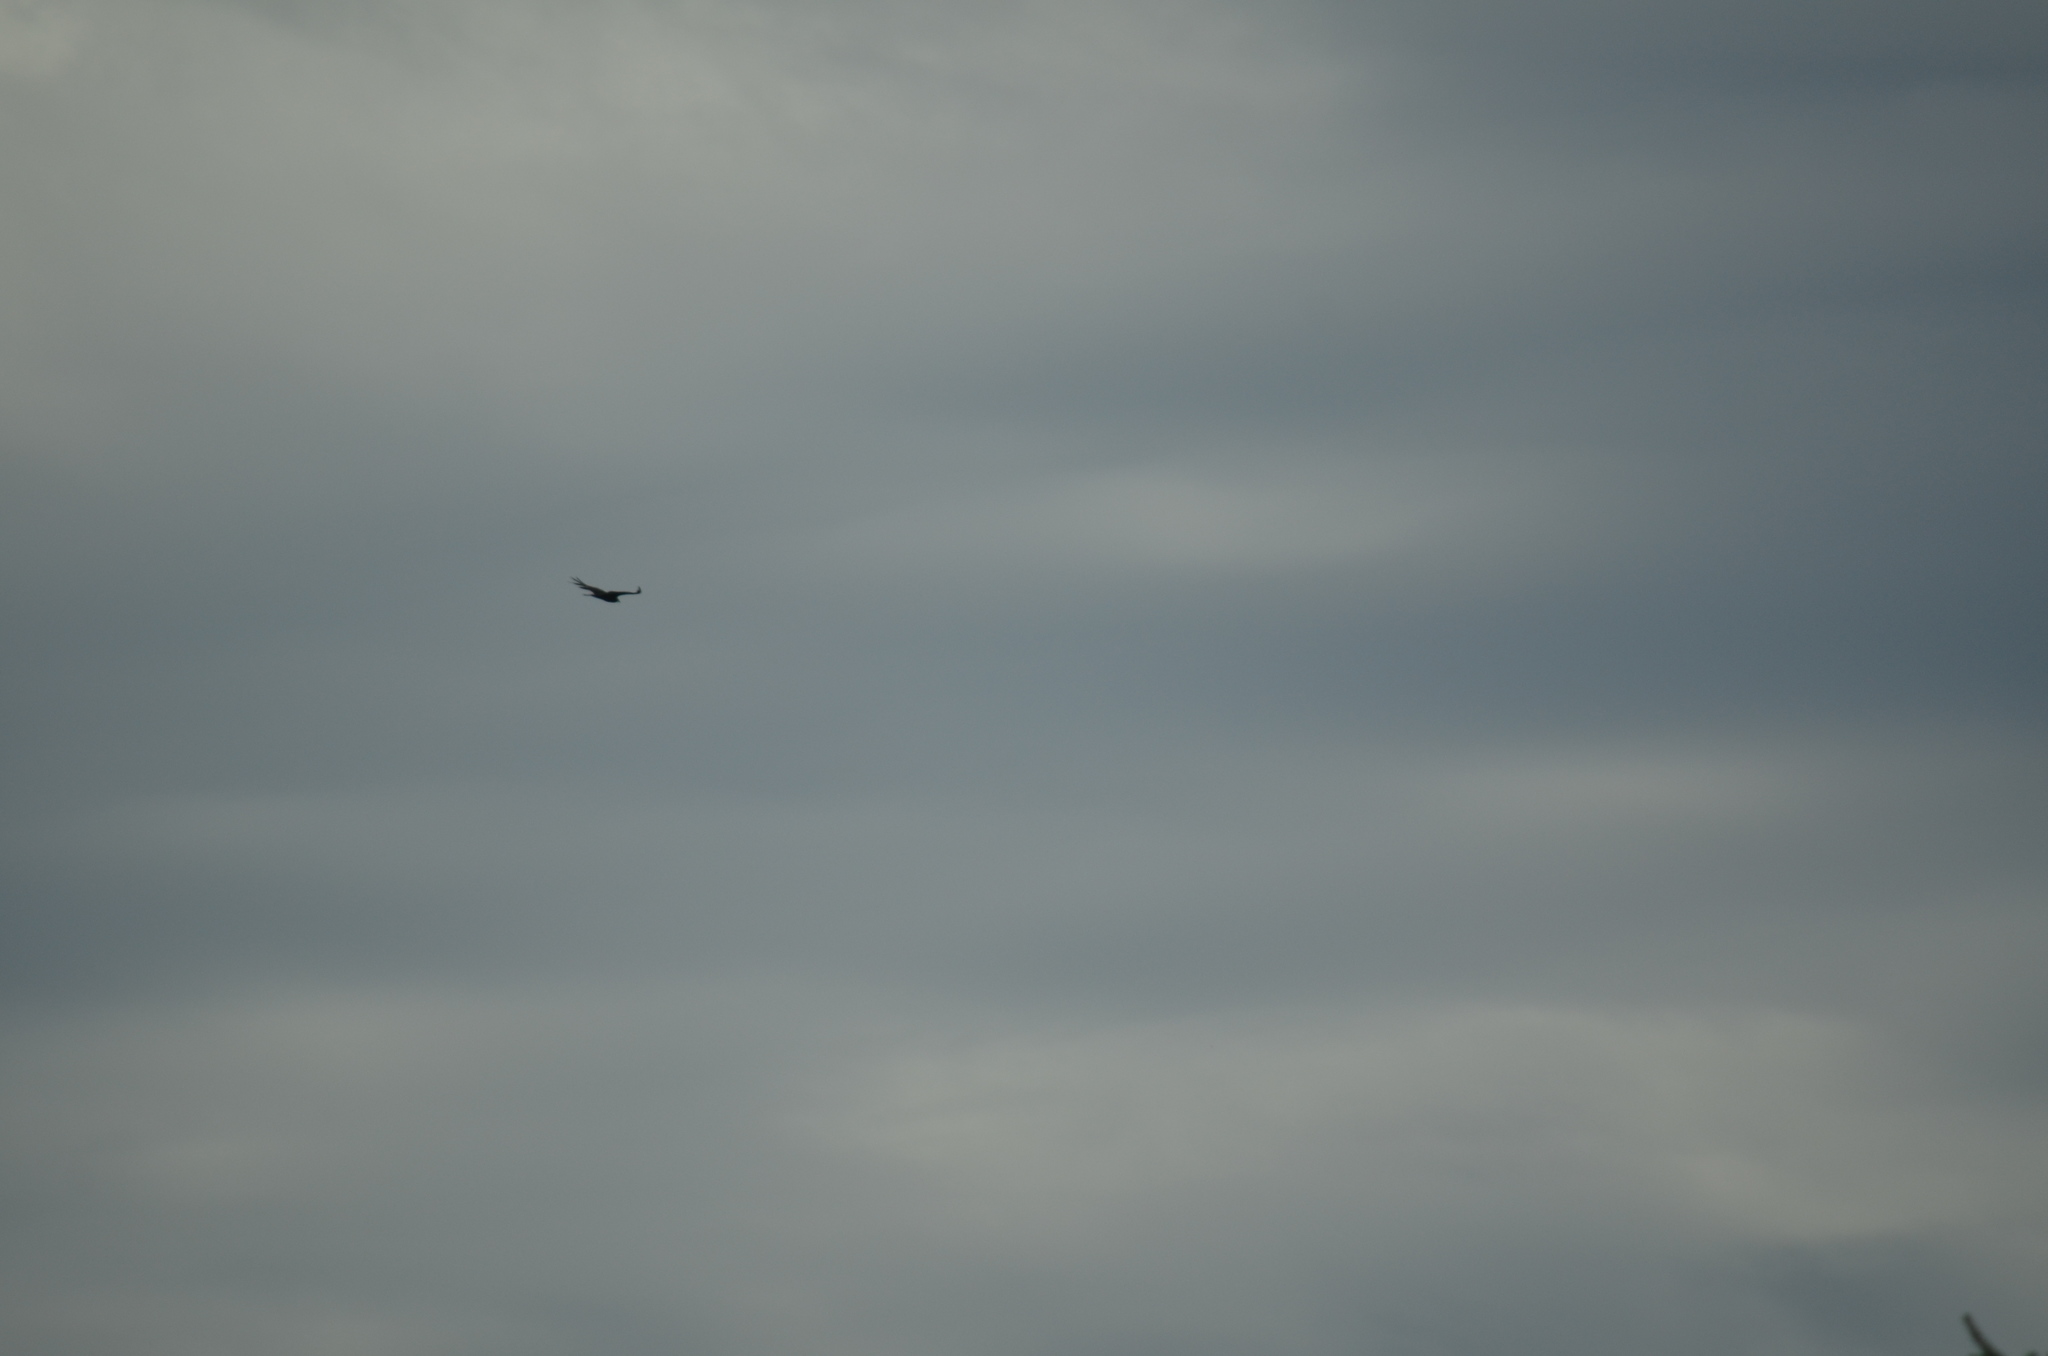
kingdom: Animalia
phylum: Chordata
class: Aves
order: Accipitriformes
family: Cathartidae
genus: Cathartes
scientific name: Cathartes aura
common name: Turkey vulture
